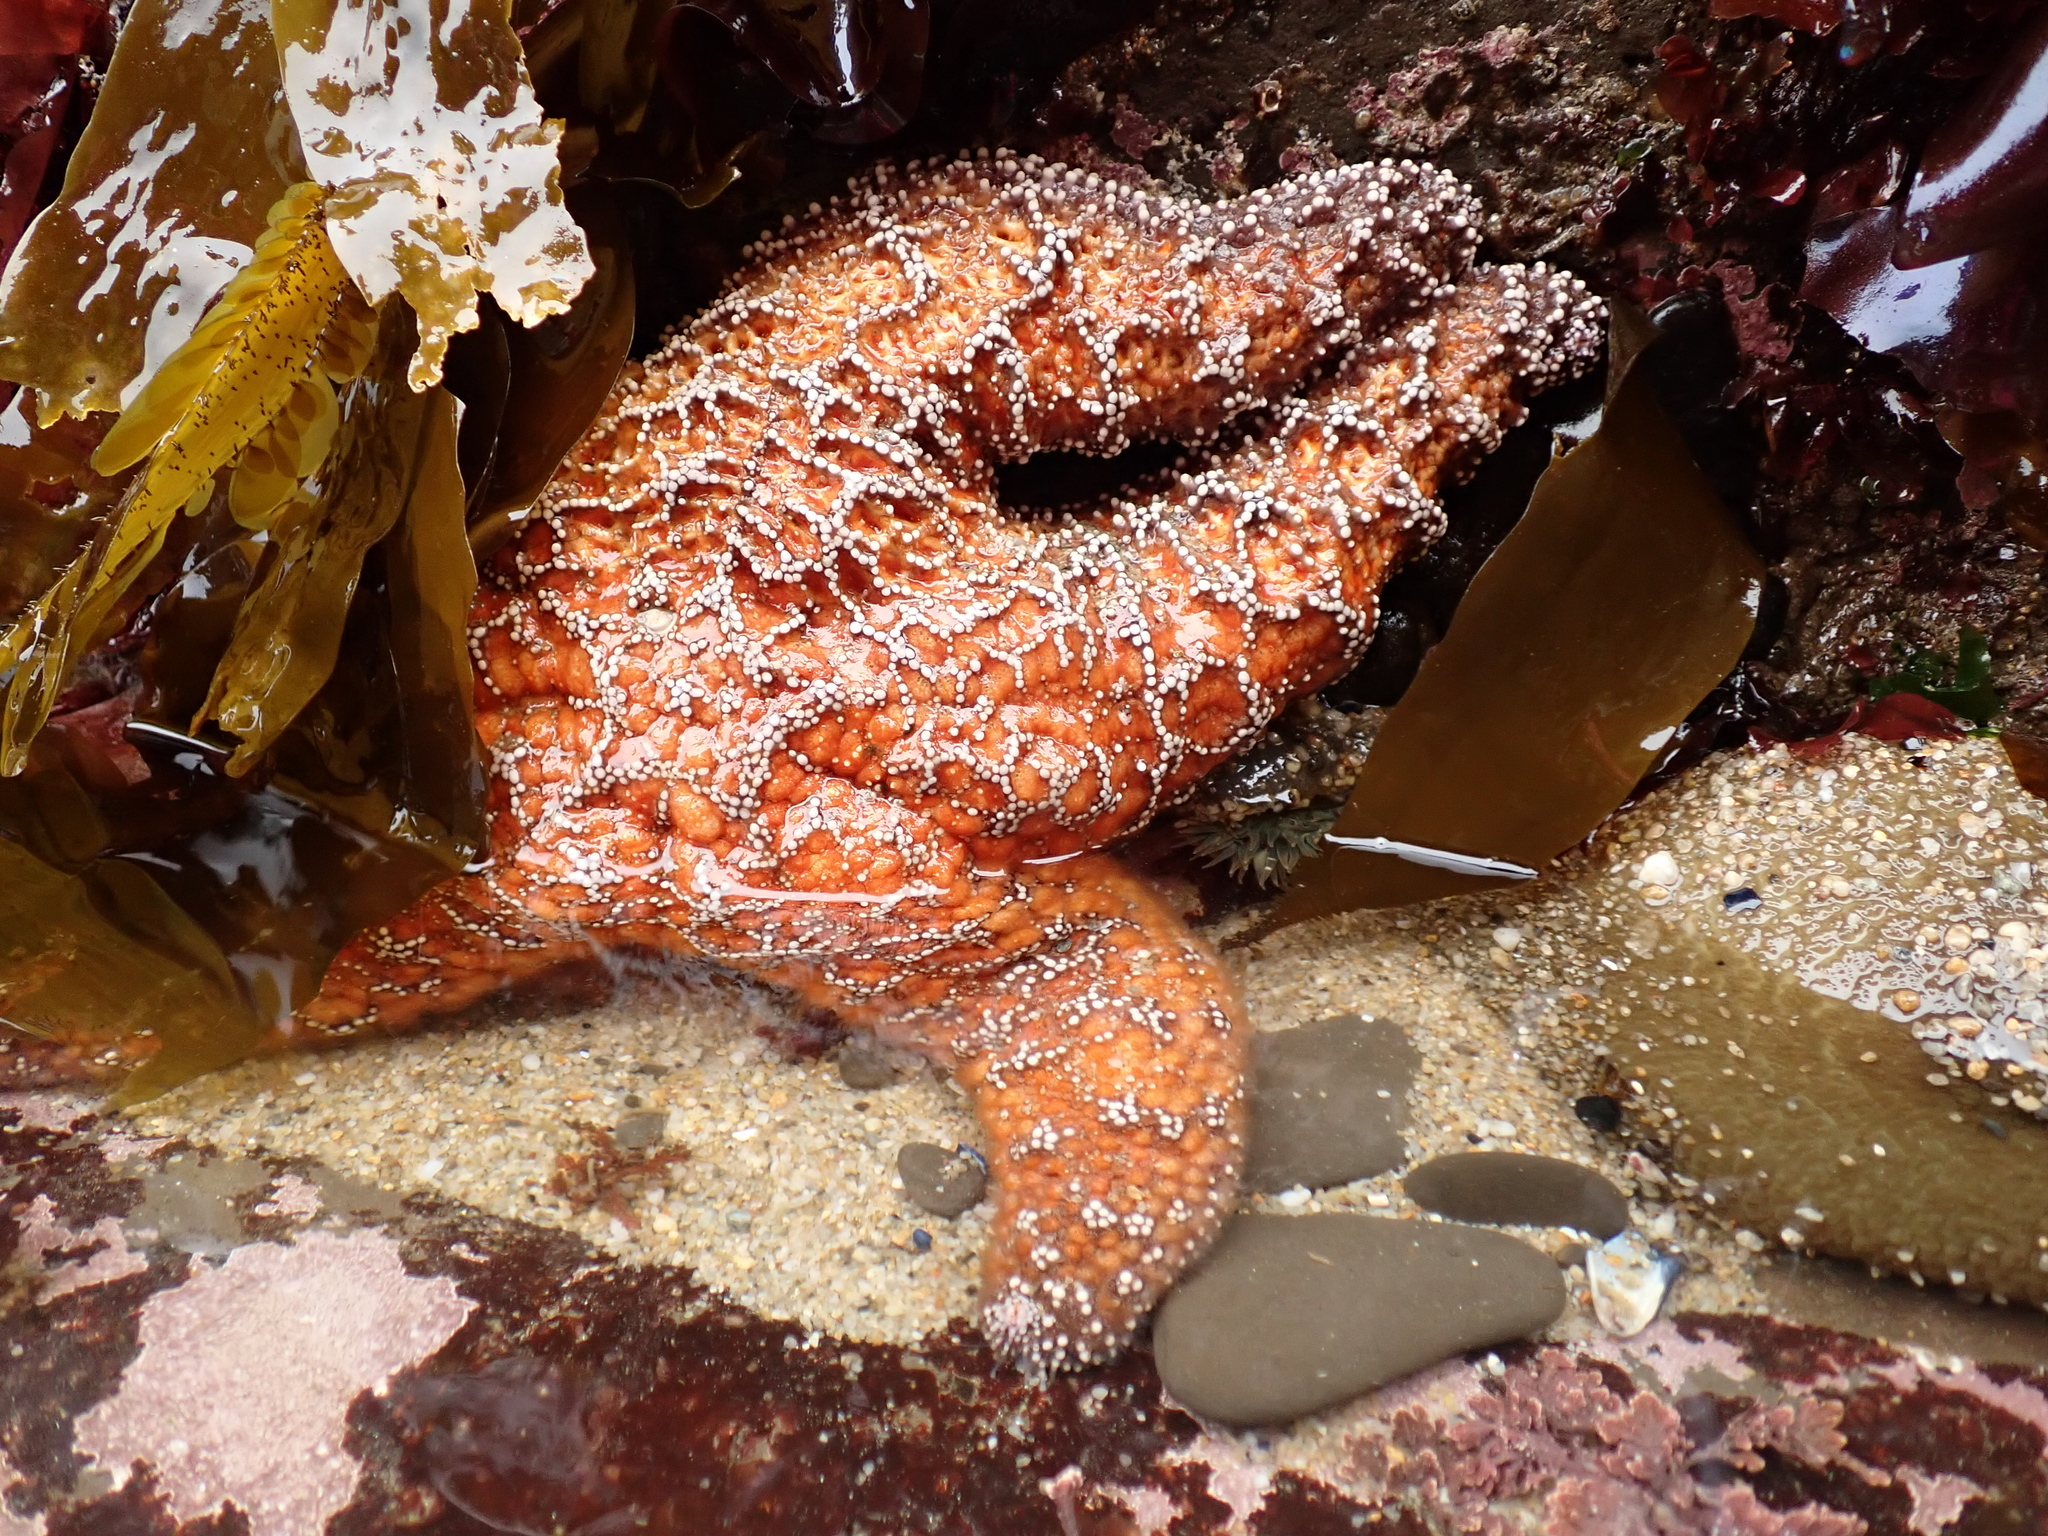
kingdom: Animalia
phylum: Echinodermata
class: Asteroidea
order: Forcipulatida
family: Asteriidae
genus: Pisaster
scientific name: Pisaster ochraceus
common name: Ochre stars
